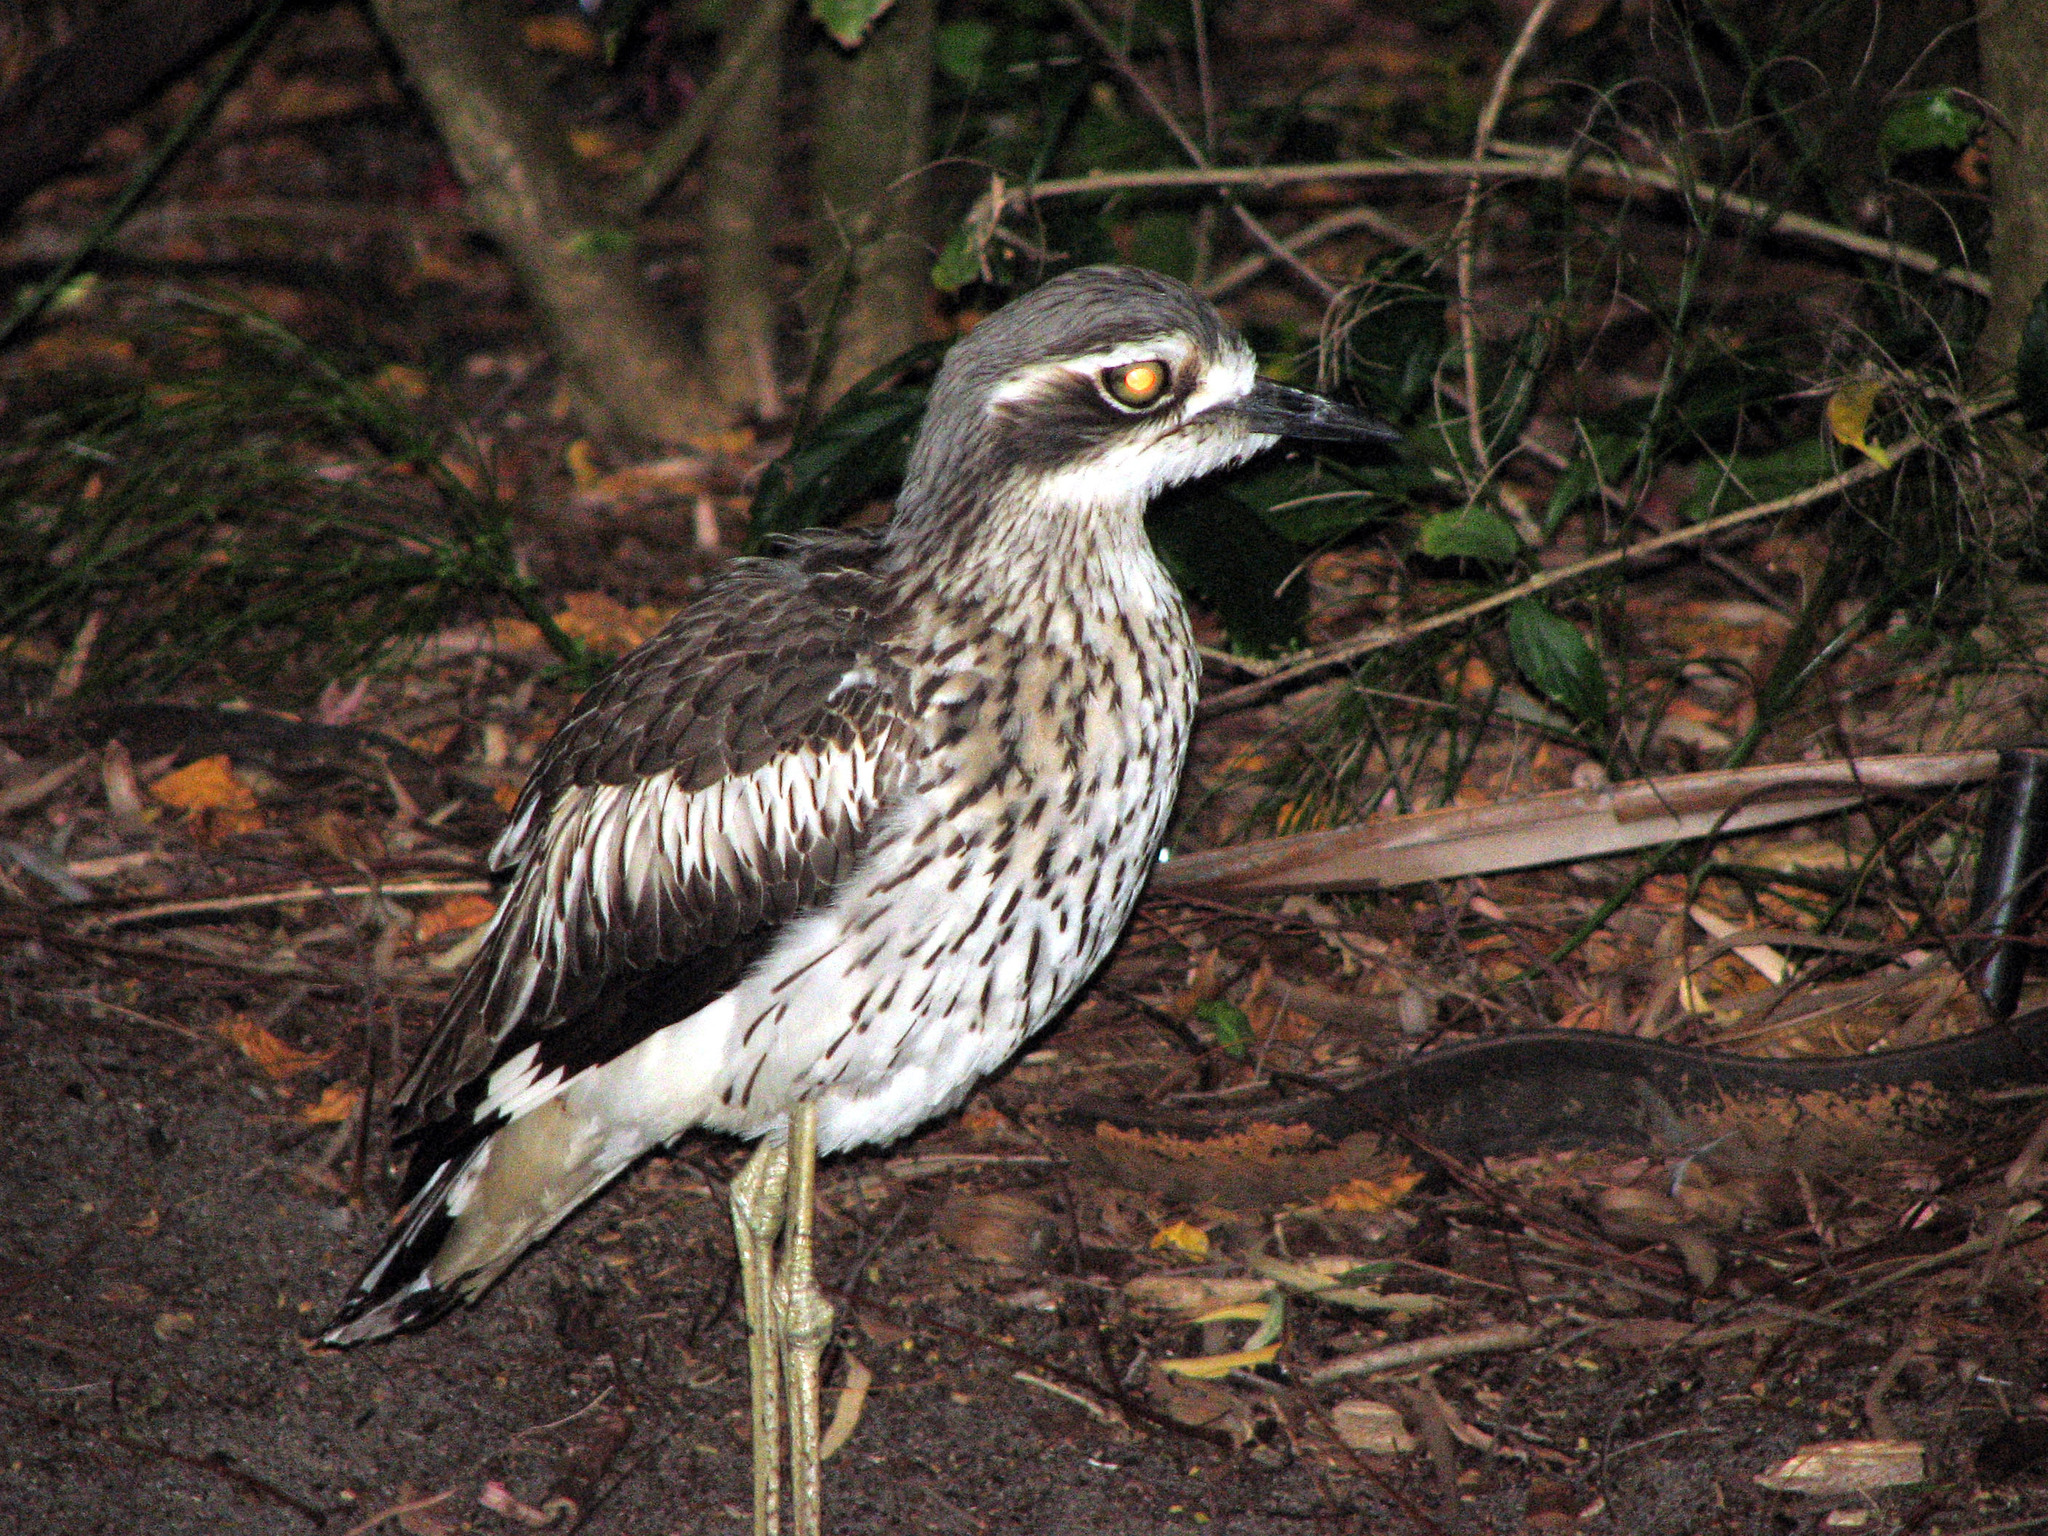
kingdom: Animalia
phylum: Chordata
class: Aves
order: Charadriiformes
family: Burhinidae
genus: Burhinus
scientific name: Burhinus grallarius
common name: Bush stone-curlew
